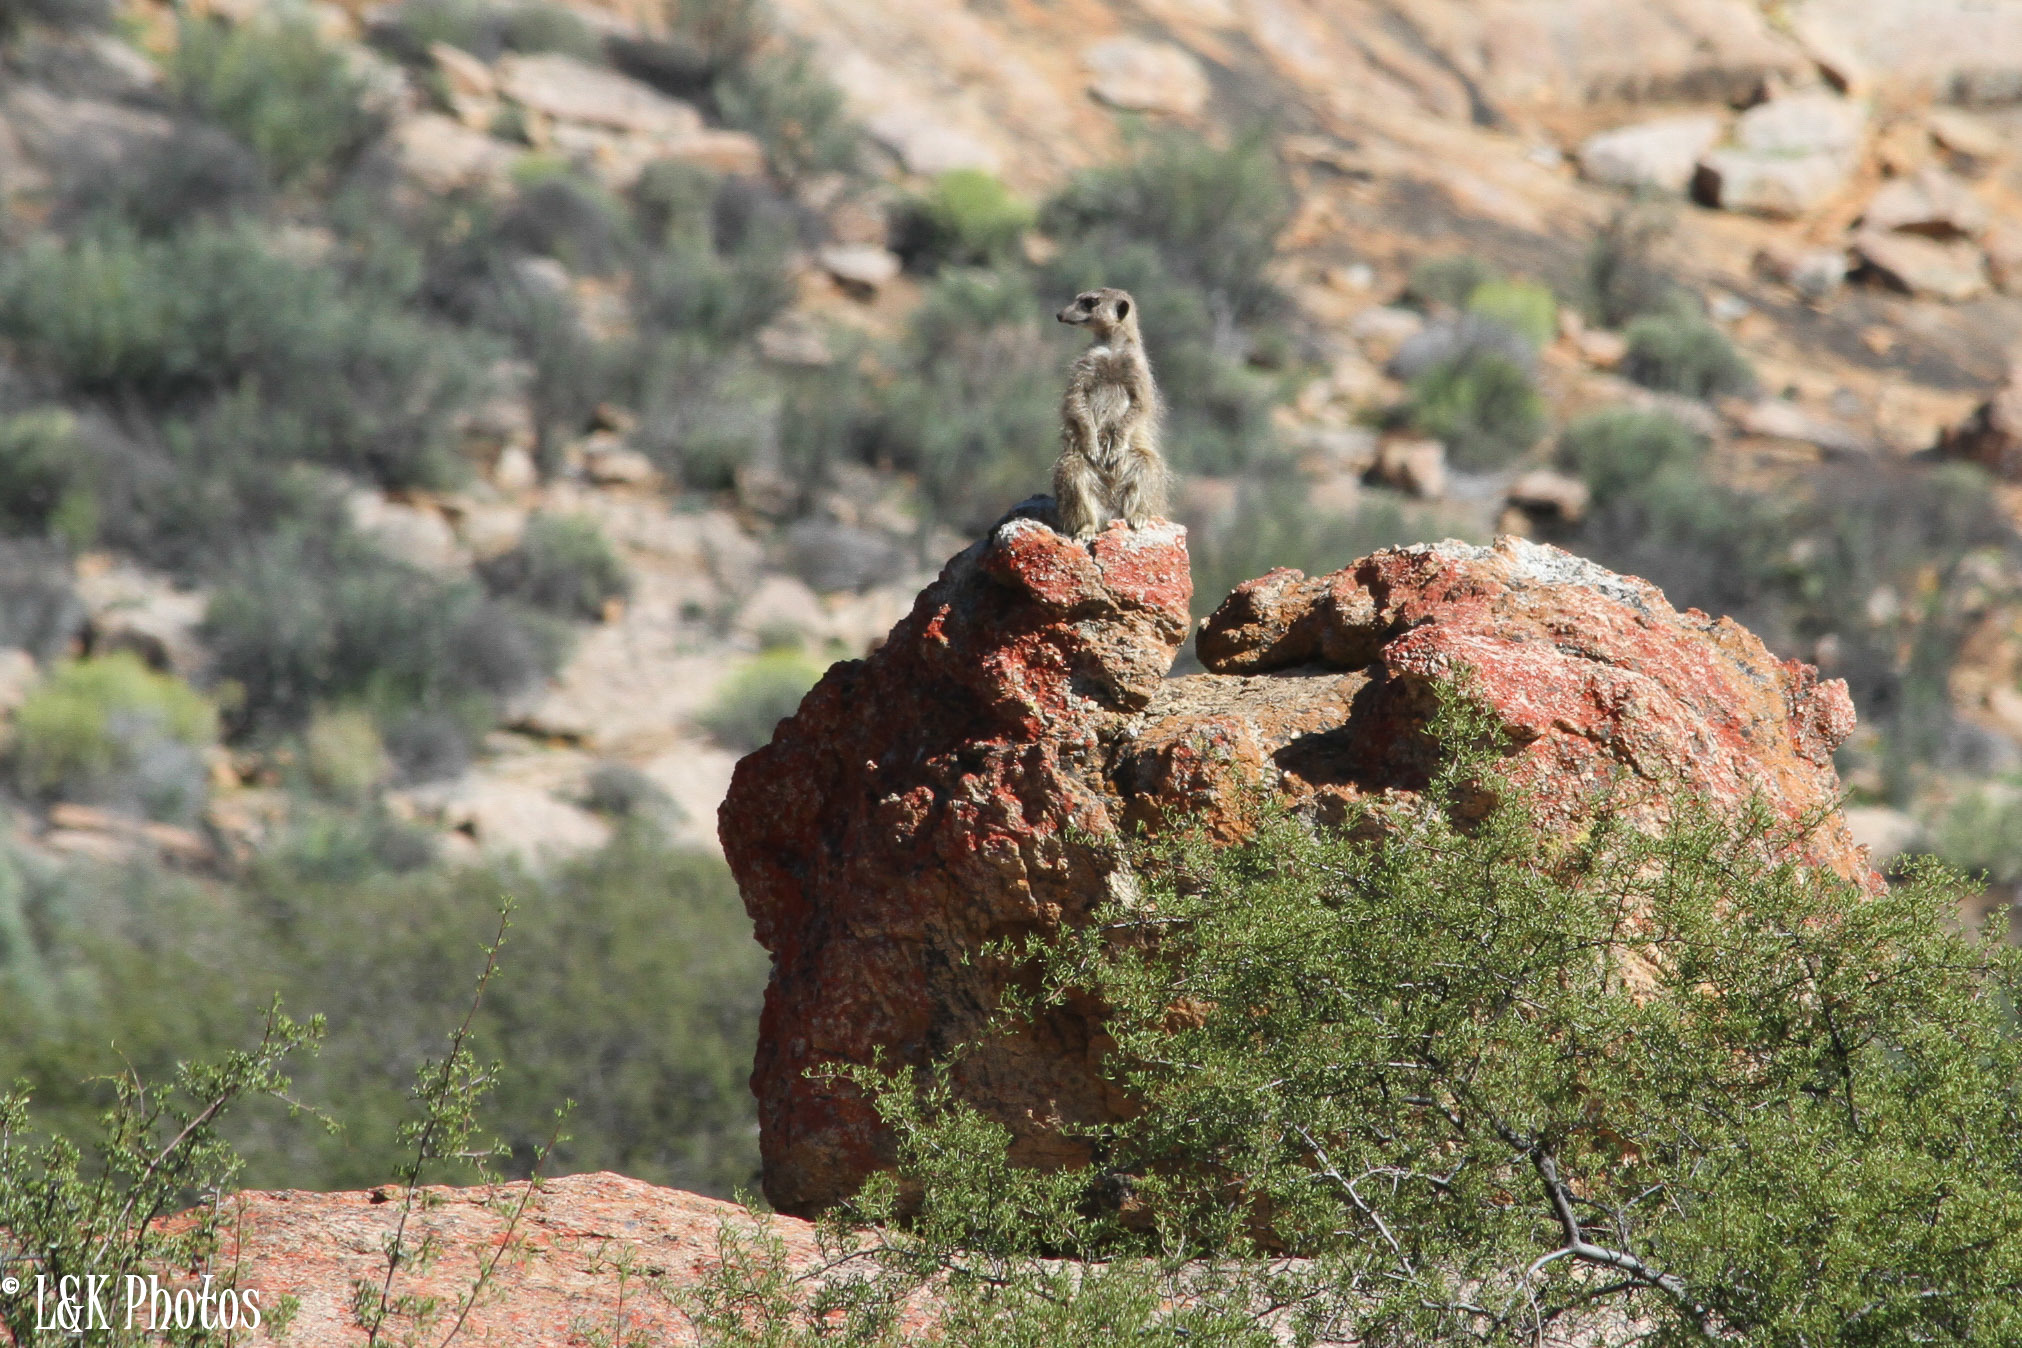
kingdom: Animalia
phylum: Chordata
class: Mammalia
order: Carnivora
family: Herpestidae
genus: Suricata
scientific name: Suricata suricatta
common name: Meerkat
